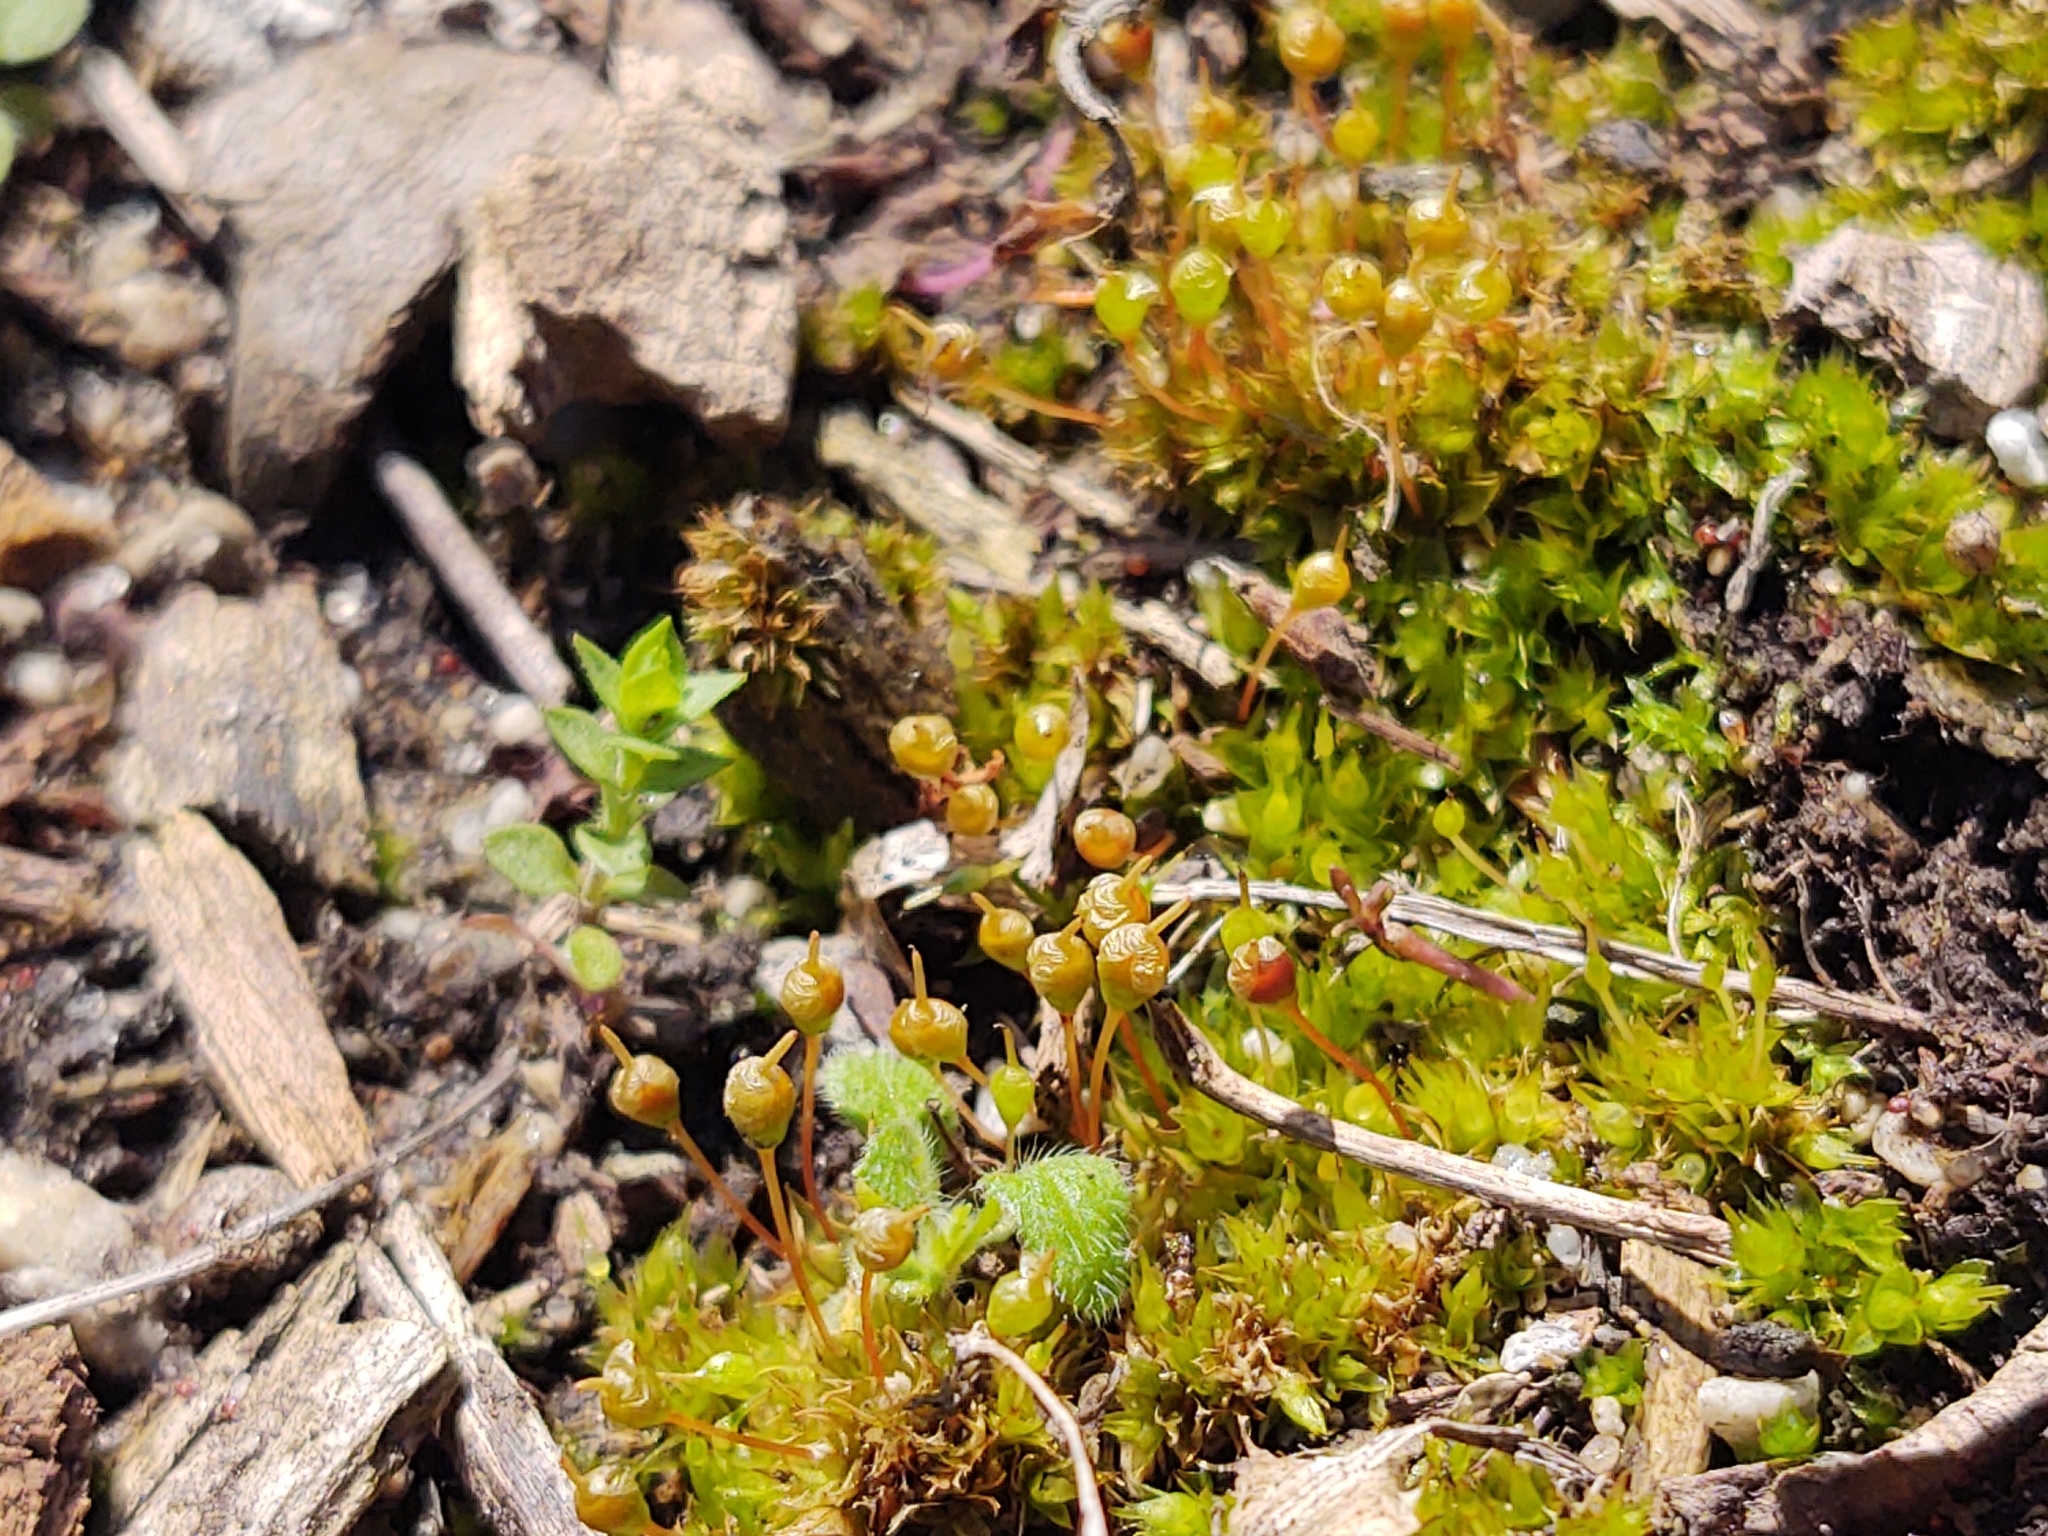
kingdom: Plantae
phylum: Bryophyta
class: Bryopsida
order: Funariales
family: Funariaceae
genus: Physcomitrium
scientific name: Physcomitrium pyriforme
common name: Common bladder-moss
